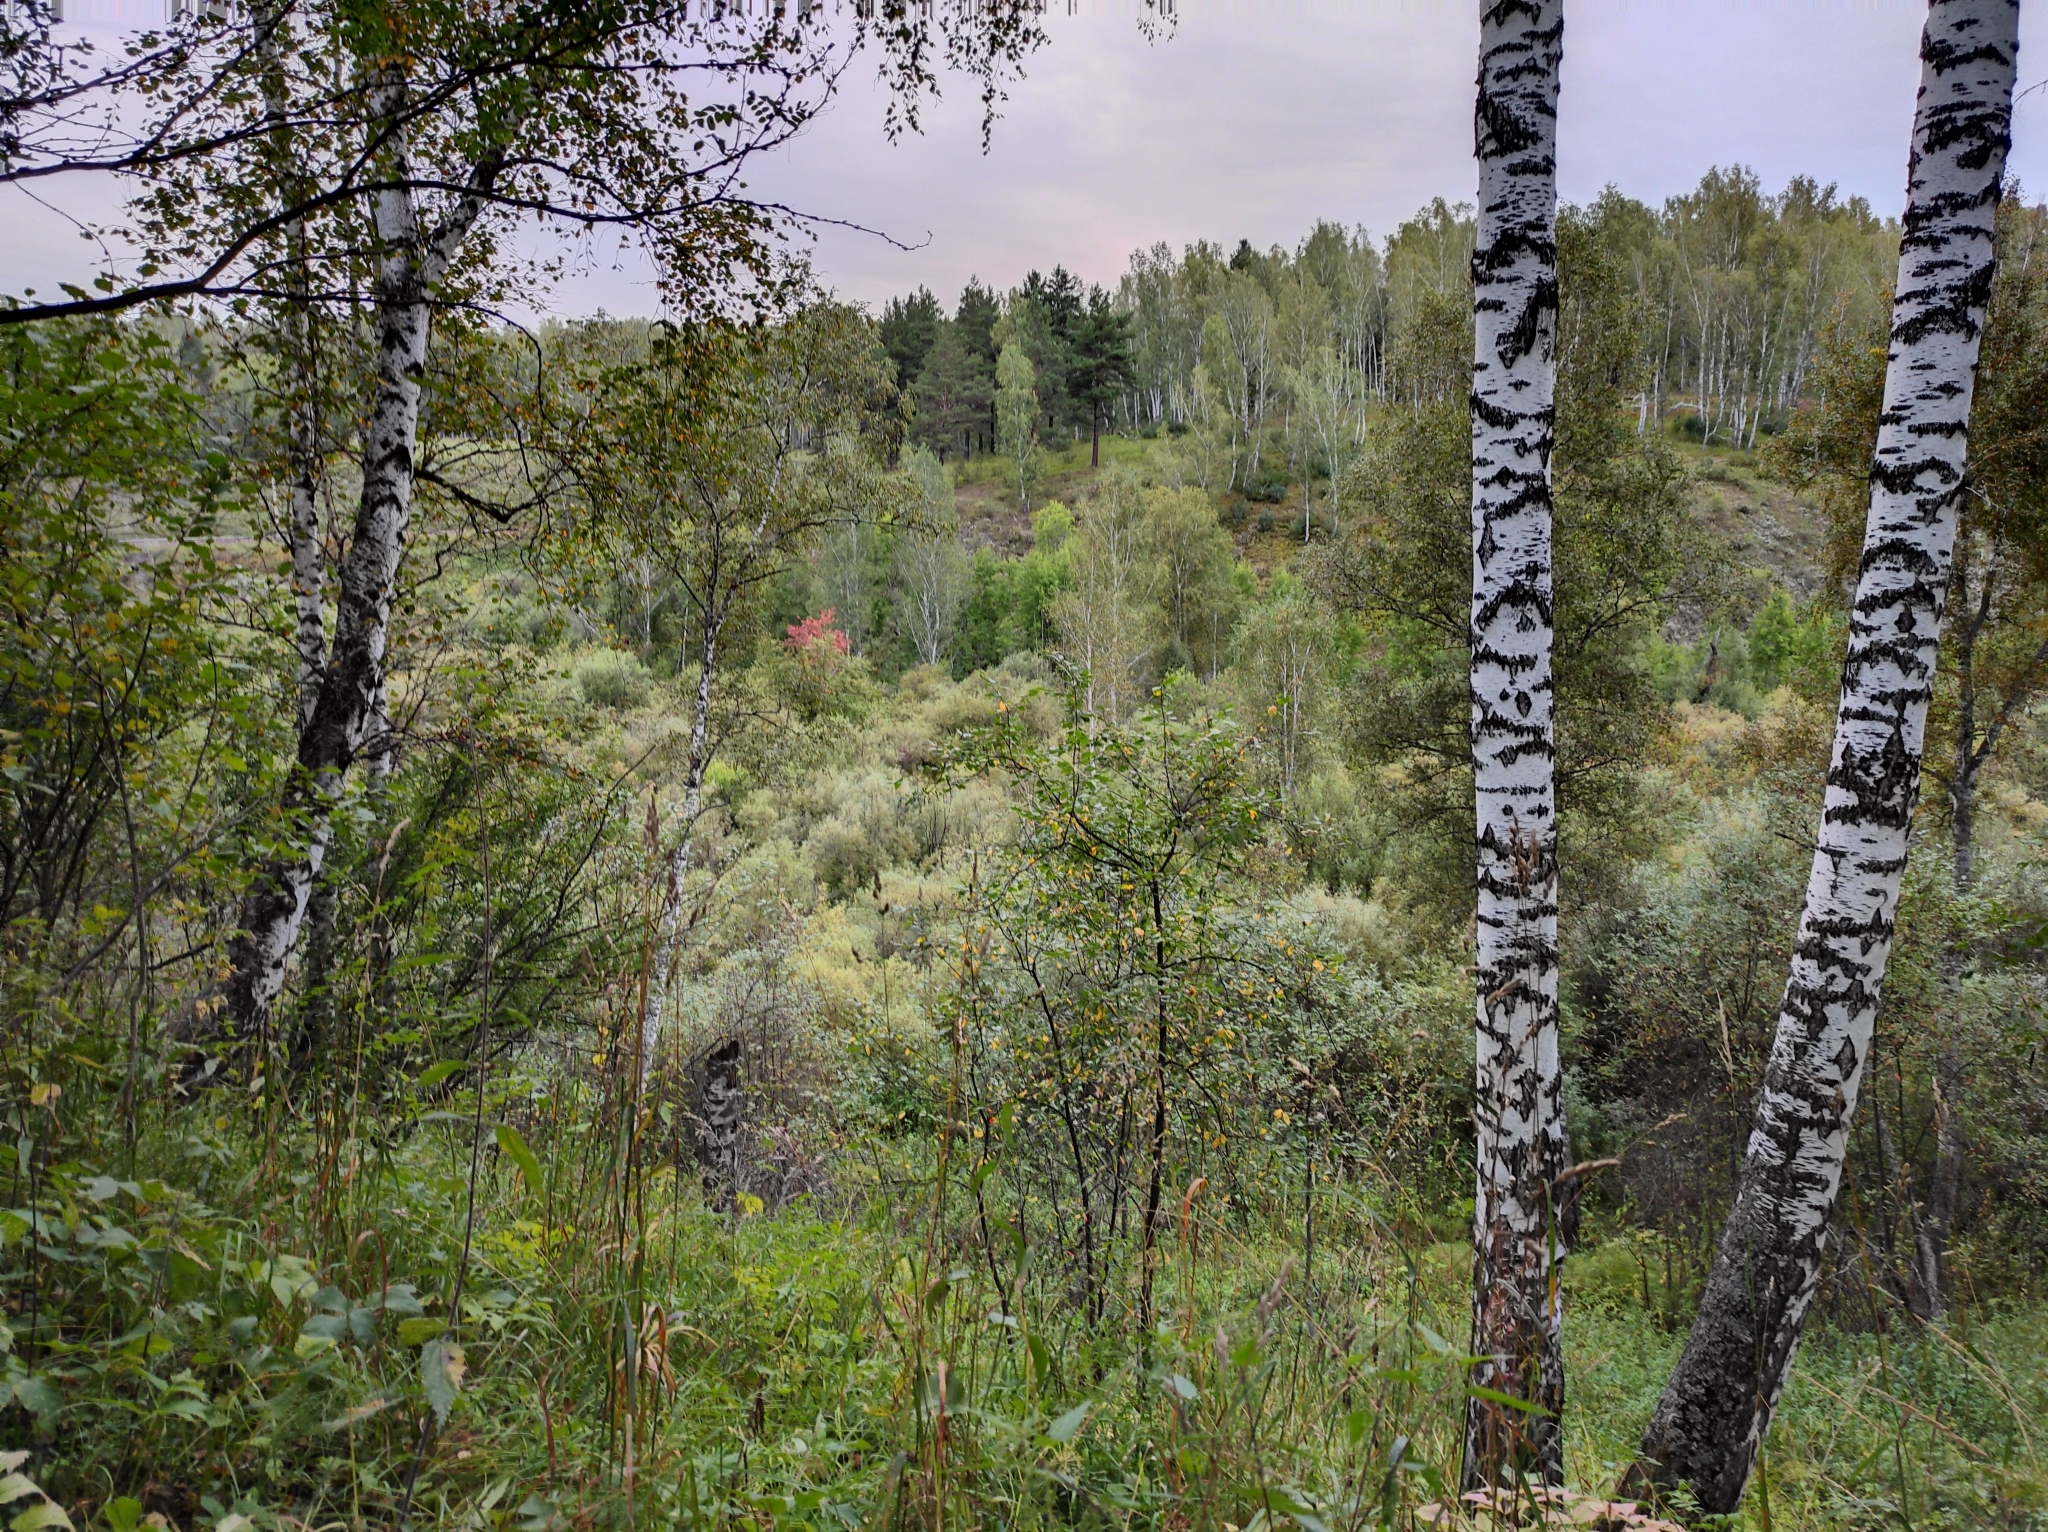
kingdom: Plantae
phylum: Tracheophyta
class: Magnoliopsida
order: Fagales
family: Betulaceae
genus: Betula
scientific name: Betula pendula
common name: Silver birch
